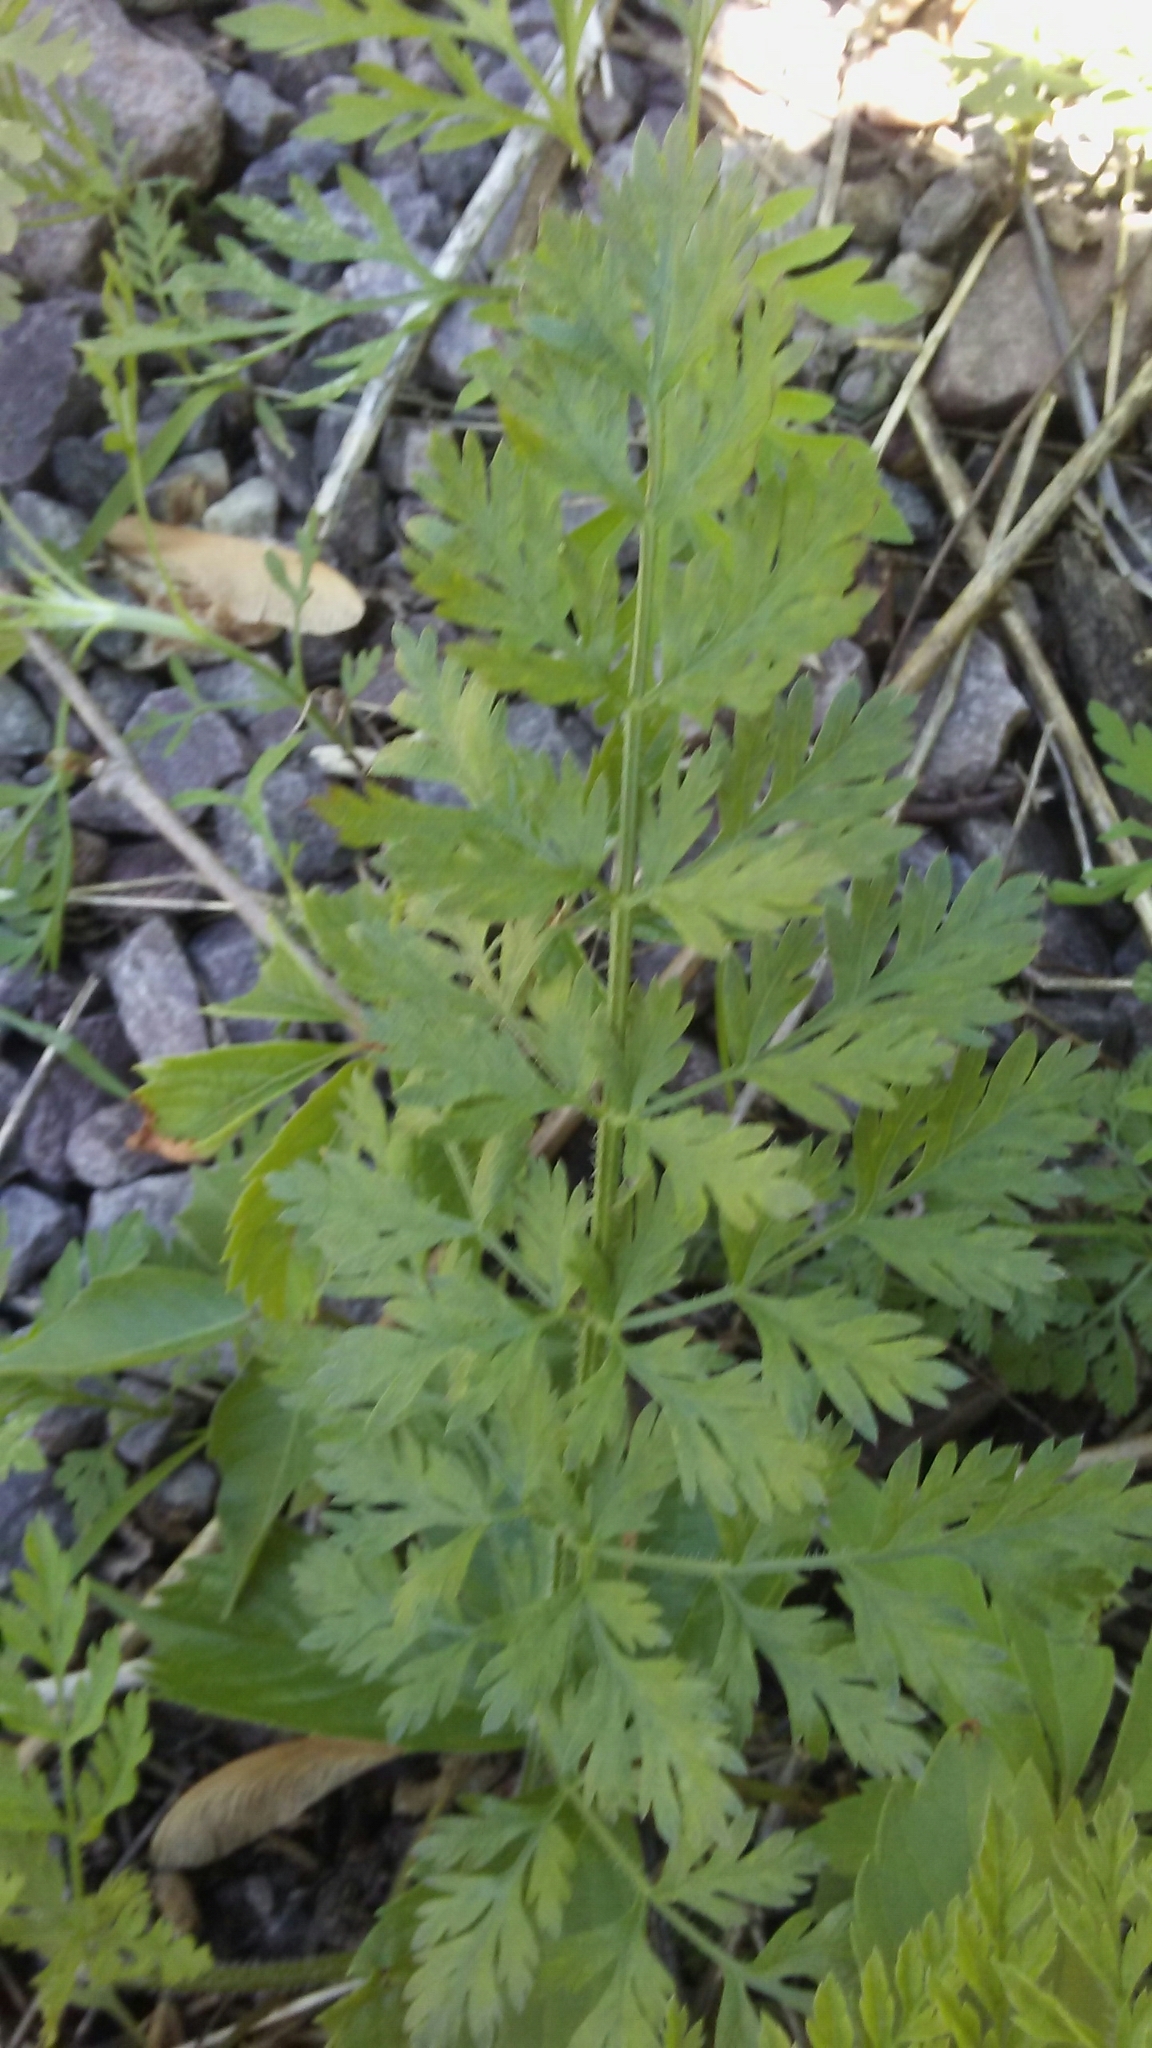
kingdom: Plantae
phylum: Tracheophyta
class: Magnoliopsida
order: Apiales
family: Apiaceae
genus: Daucus
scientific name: Daucus carota
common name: Wild carrot
